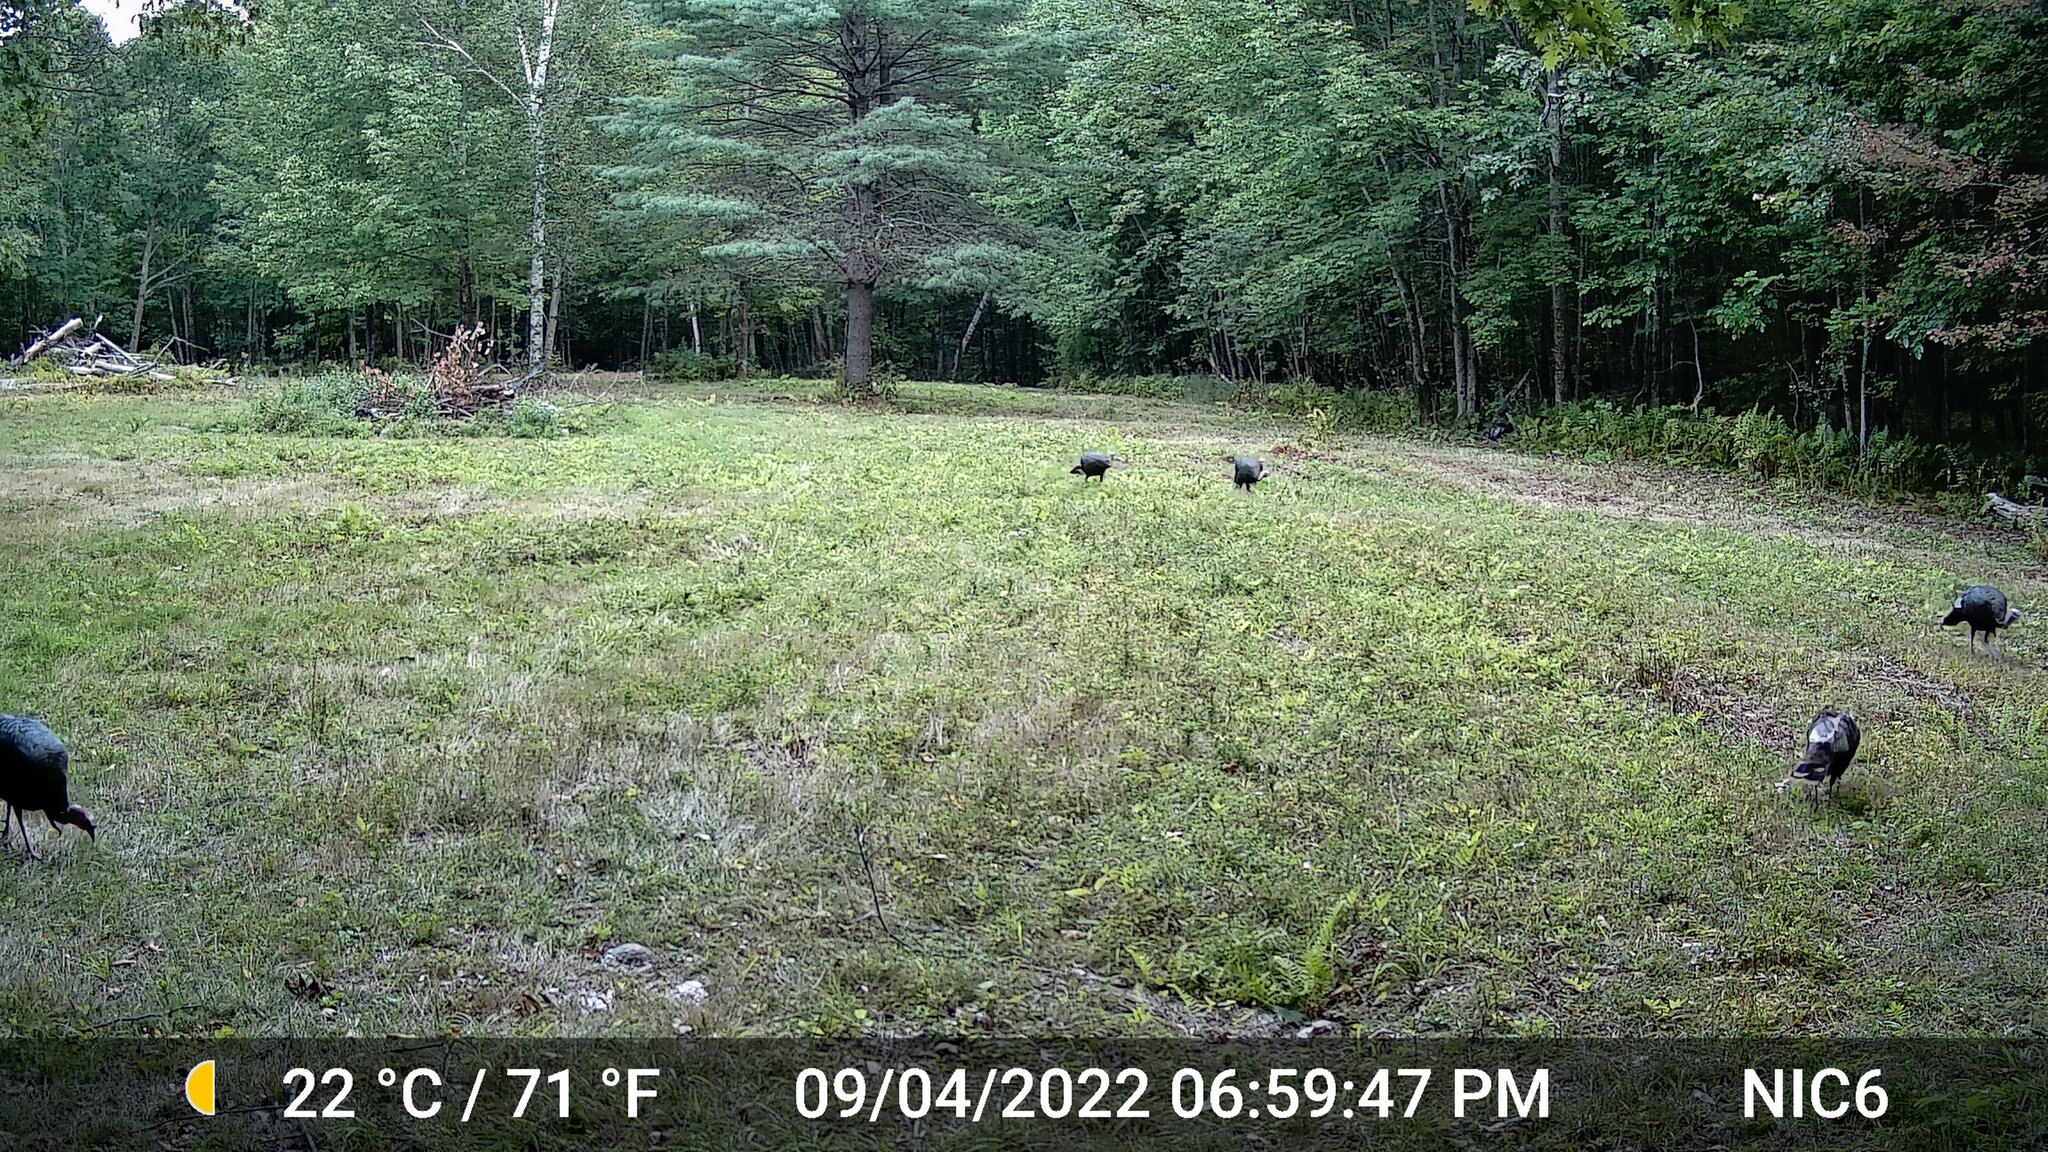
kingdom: Animalia
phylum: Chordata
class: Aves
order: Galliformes
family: Phasianidae
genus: Meleagris
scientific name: Meleagris gallopavo
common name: Wild turkey
